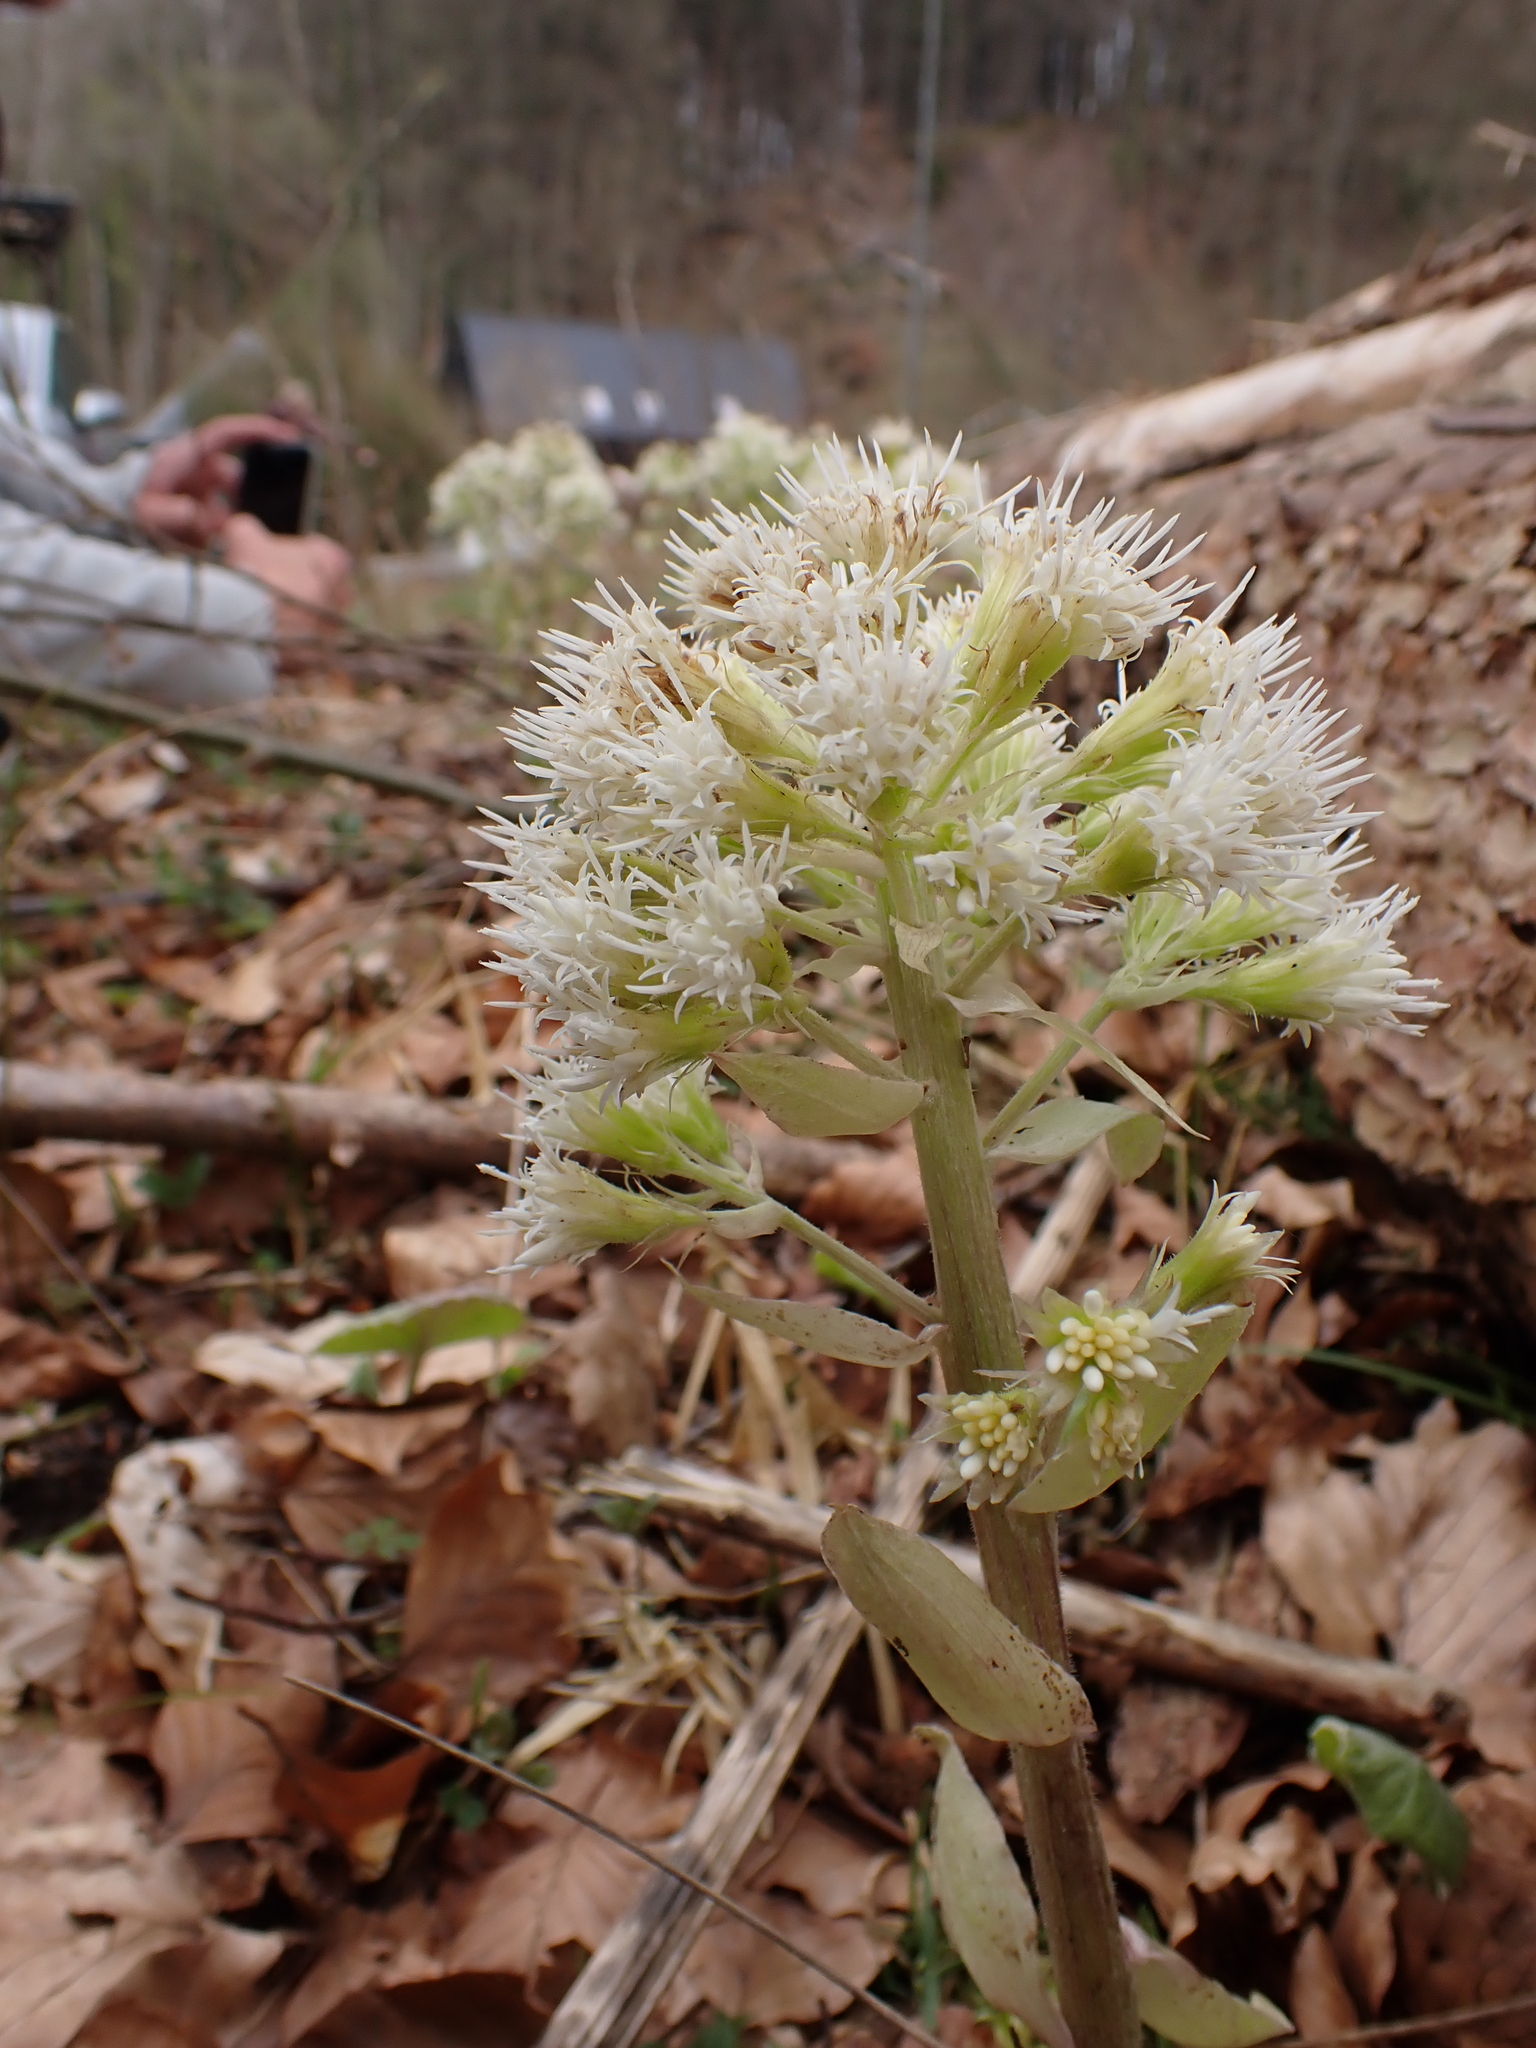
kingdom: Plantae
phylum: Tracheophyta
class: Magnoliopsida
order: Asterales
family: Asteraceae
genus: Petasites
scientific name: Petasites albus
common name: White butterbur
